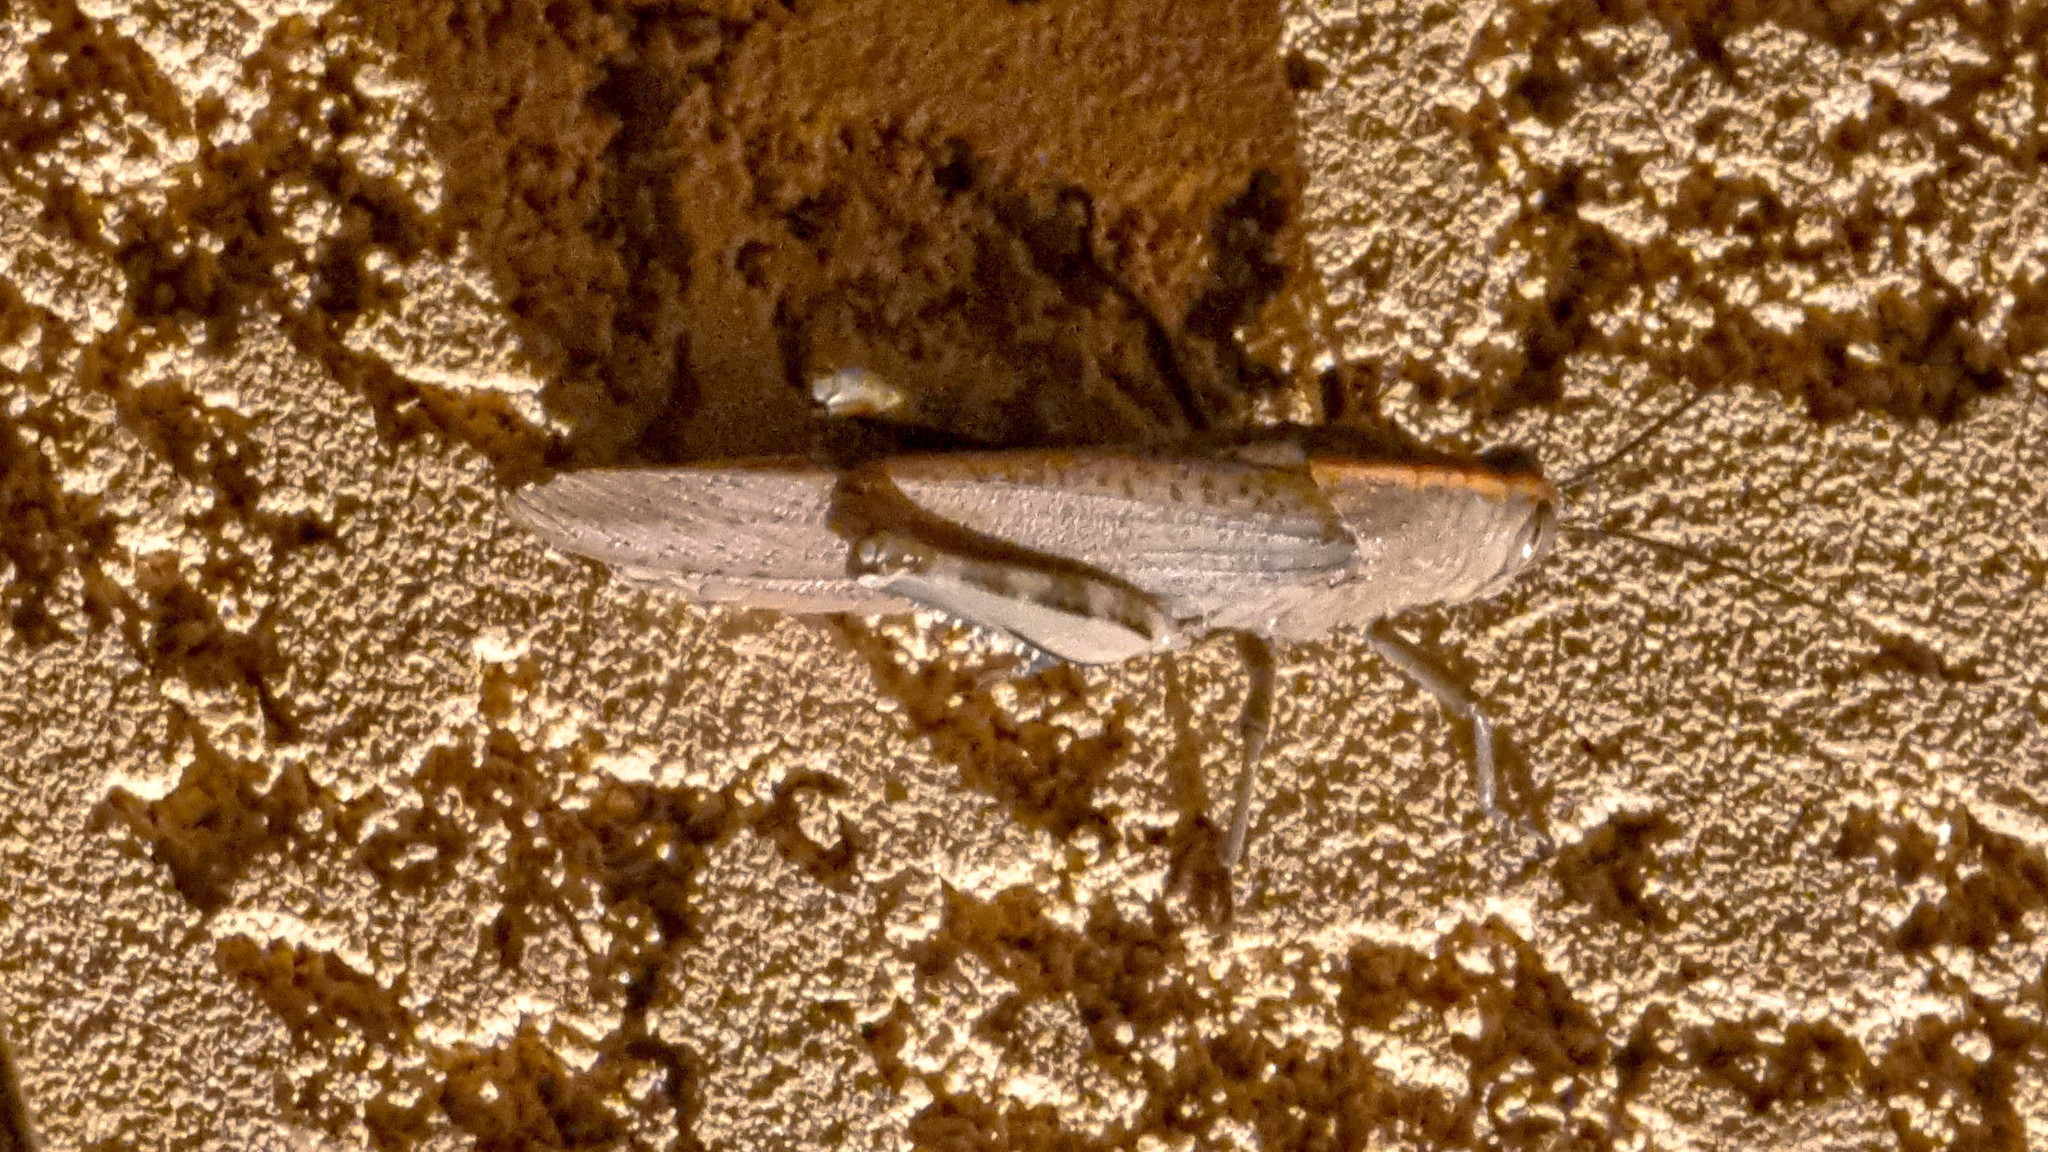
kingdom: Animalia
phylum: Arthropoda
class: Insecta
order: Orthoptera
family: Acrididae
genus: Anacridium
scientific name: Anacridium aegyptium
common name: Egyptian grasshopper
